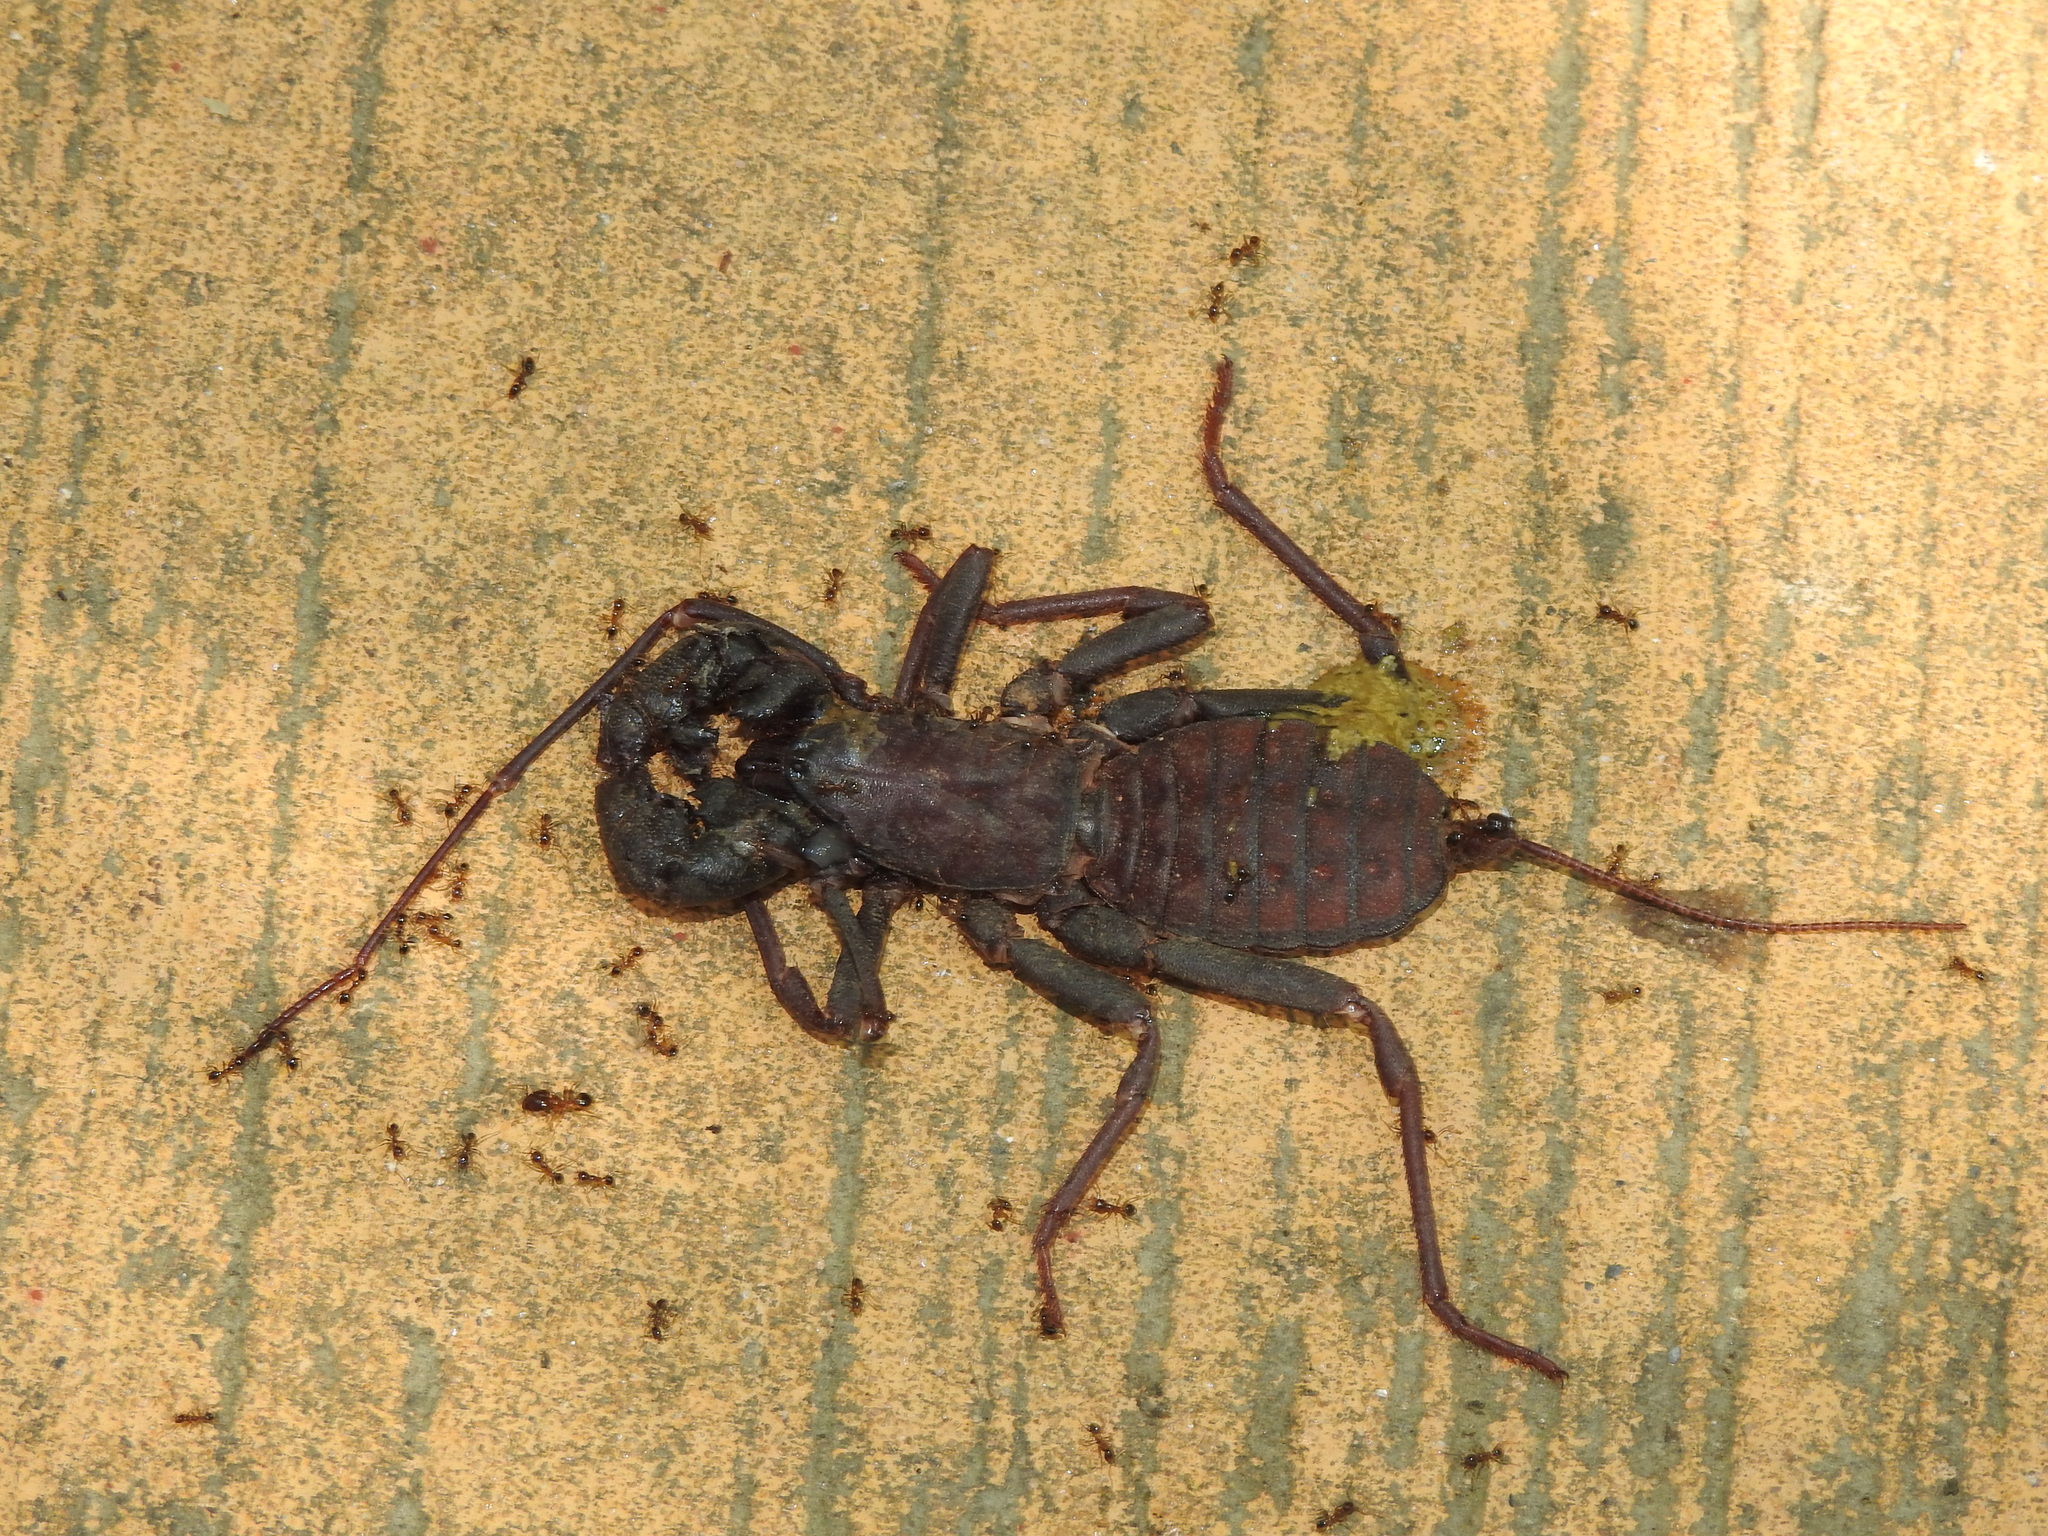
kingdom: Animalia
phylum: Arthropoda
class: Arachnida
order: Uropygi
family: Thelyphonidae
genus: Typopeltis
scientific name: Typopeltis crucifer
